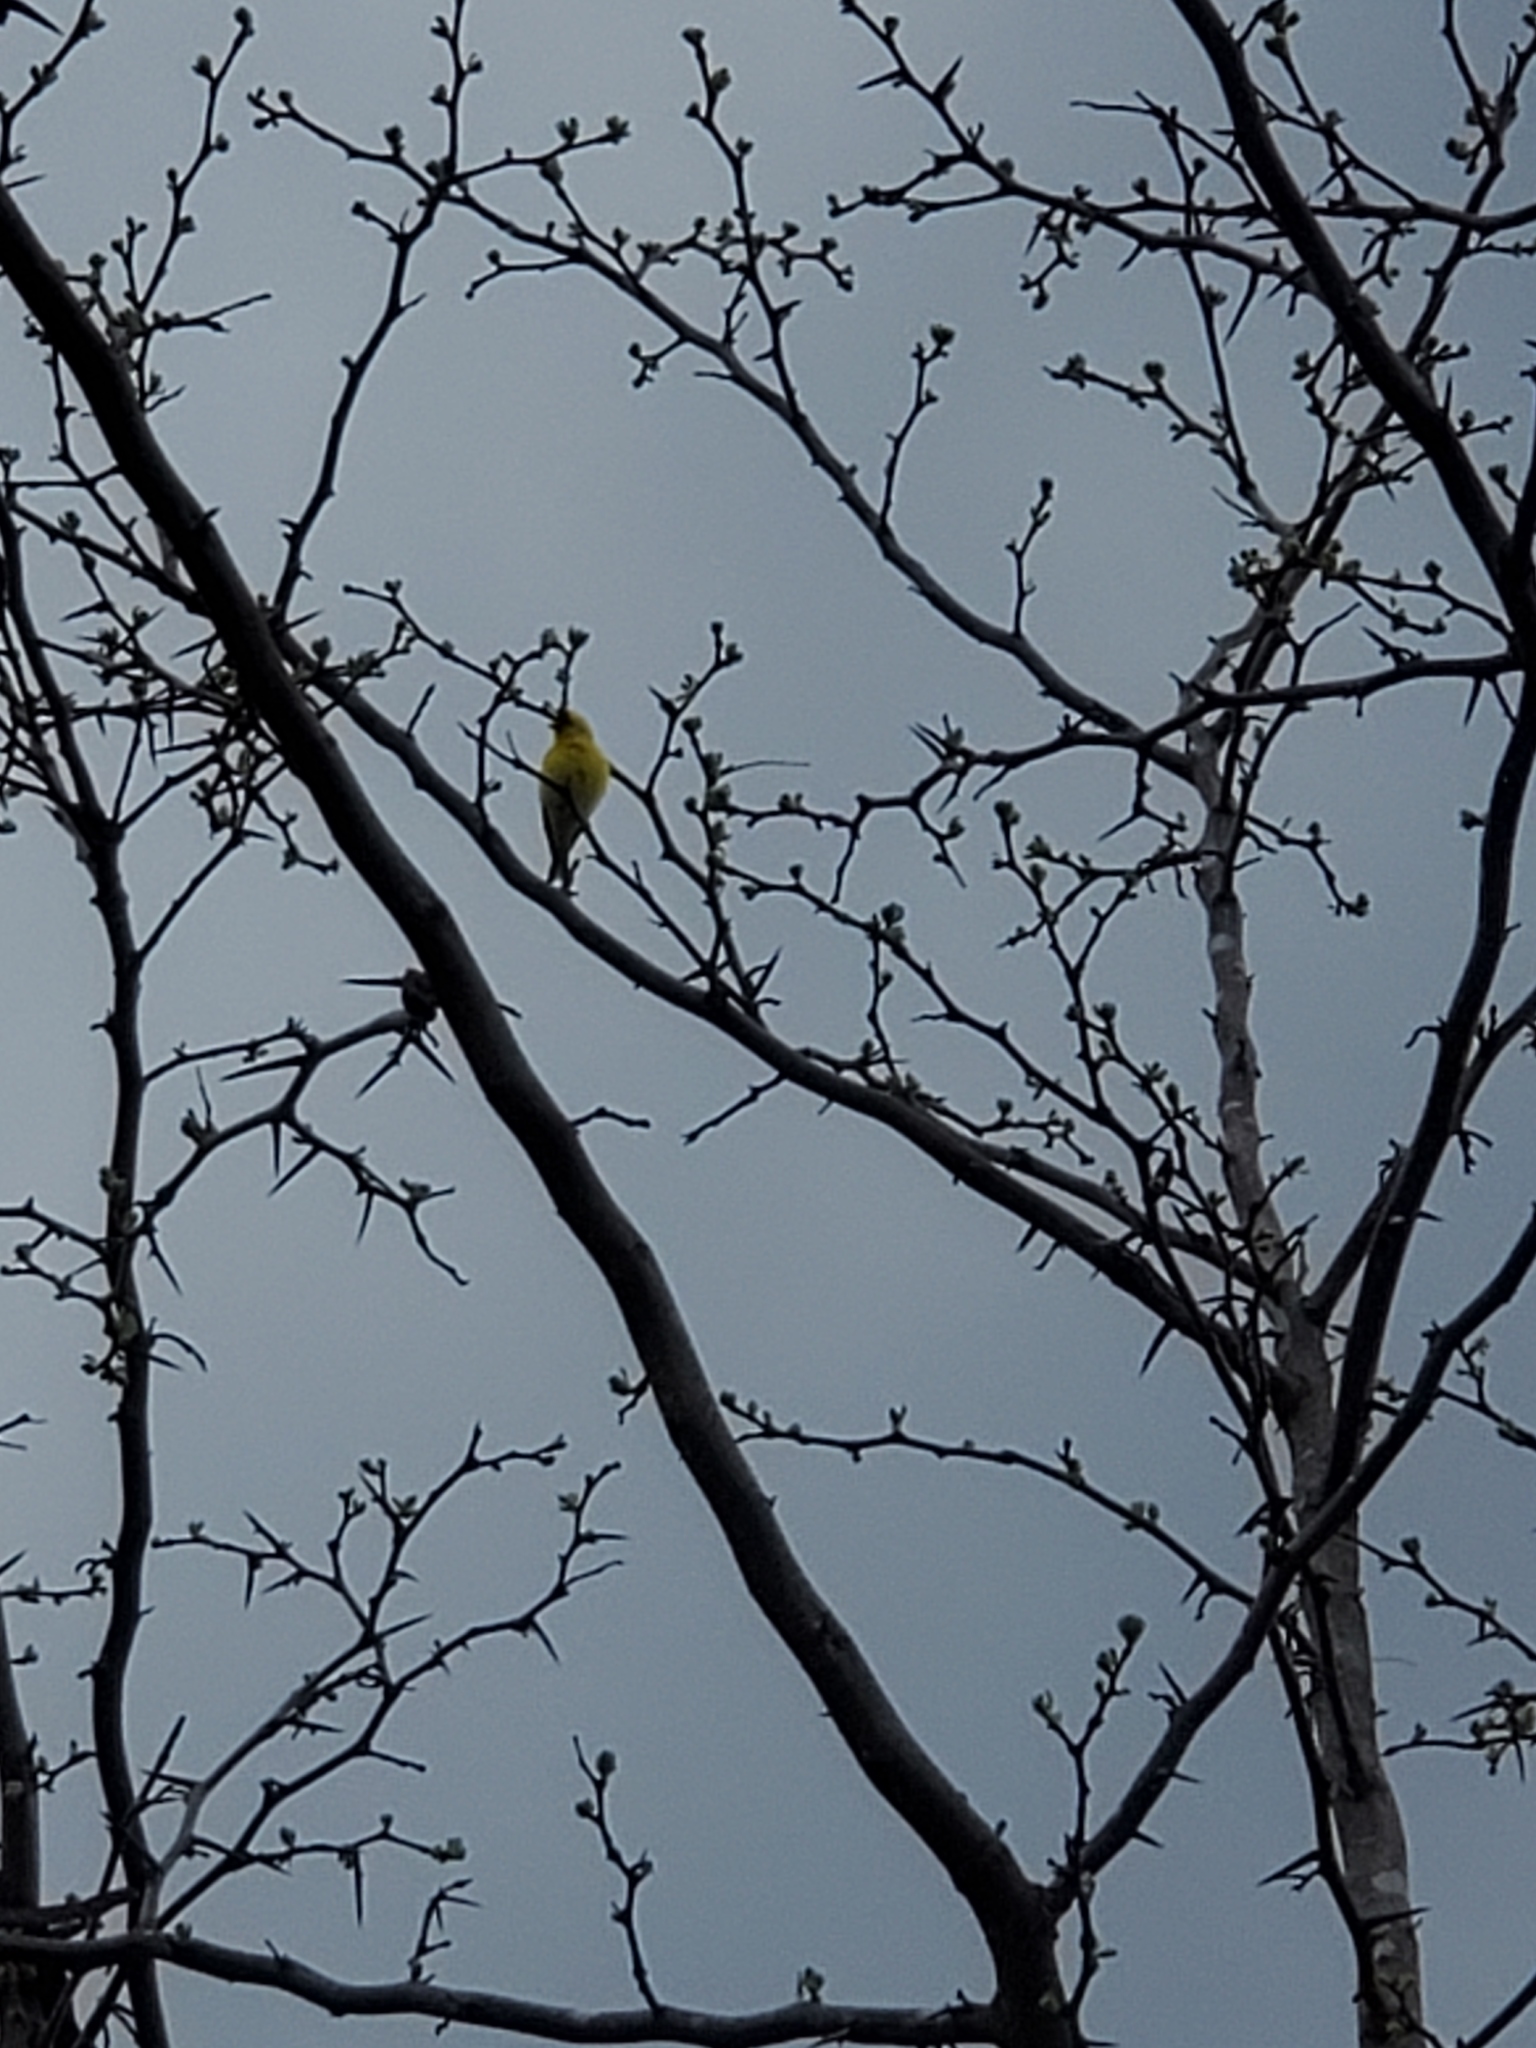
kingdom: Animalia
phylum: Chordata
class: Aves
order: Passeriformes
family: Fringillidae
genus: Spinus
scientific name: Spinus tristis
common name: American goldfinch
